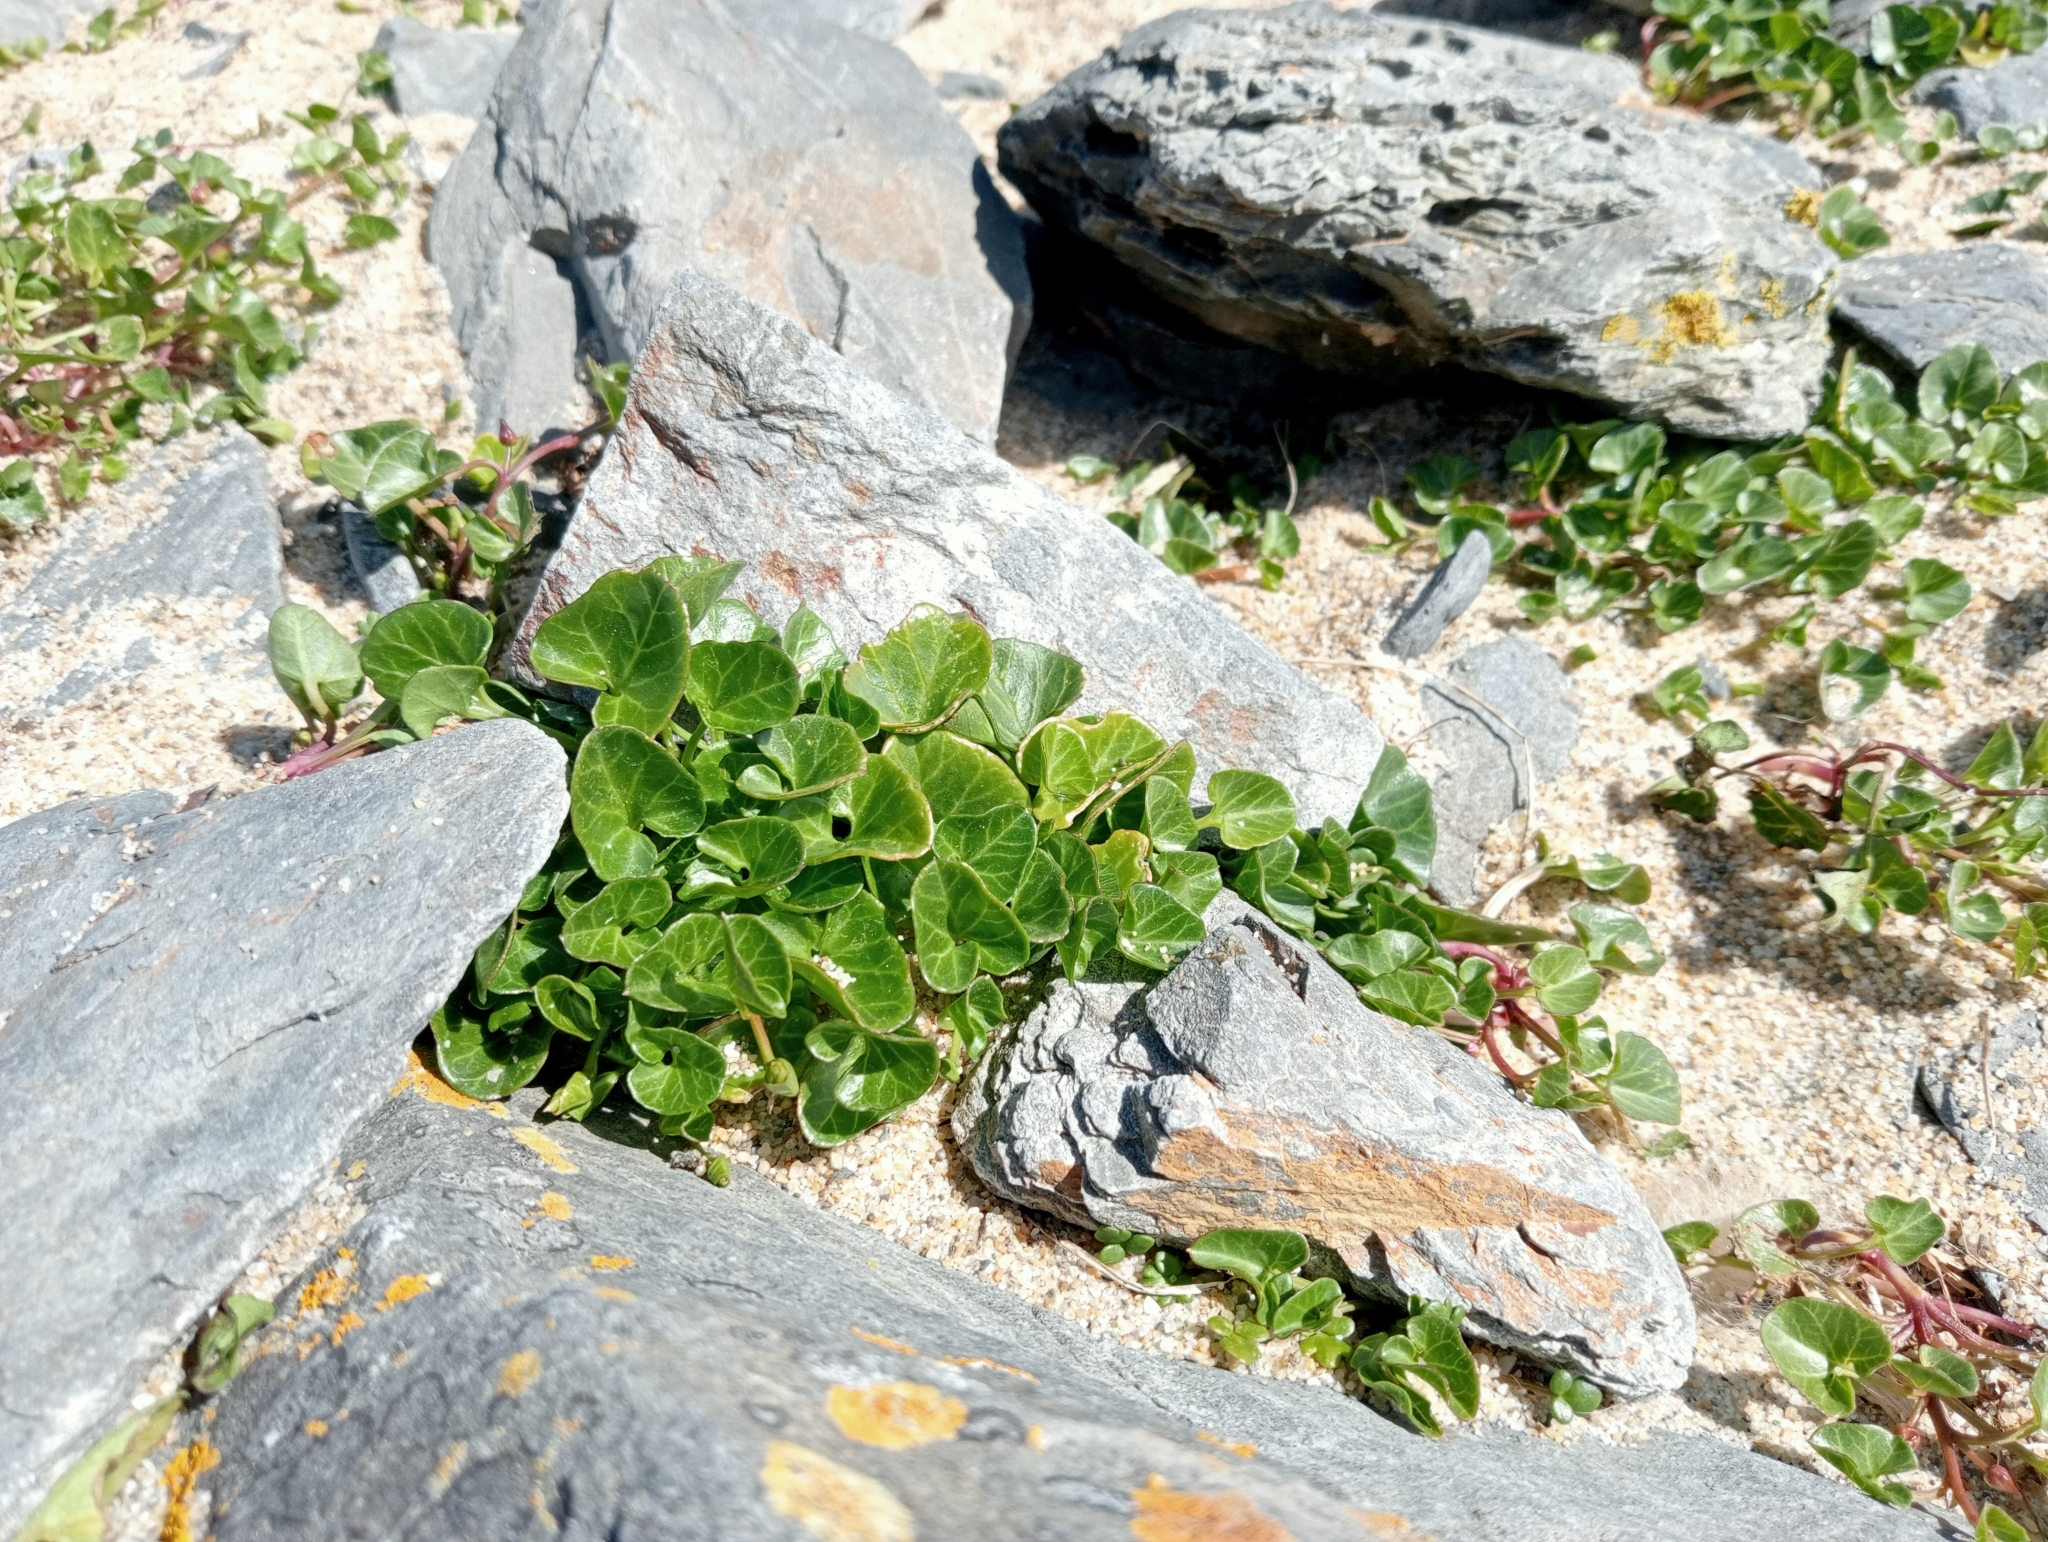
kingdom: Plantae
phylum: Tracheophyta
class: Magnoliopsida
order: Solanales
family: Convolvulaceae
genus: Calystegia
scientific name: Calystegia soldanella
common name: Sea bindweed
